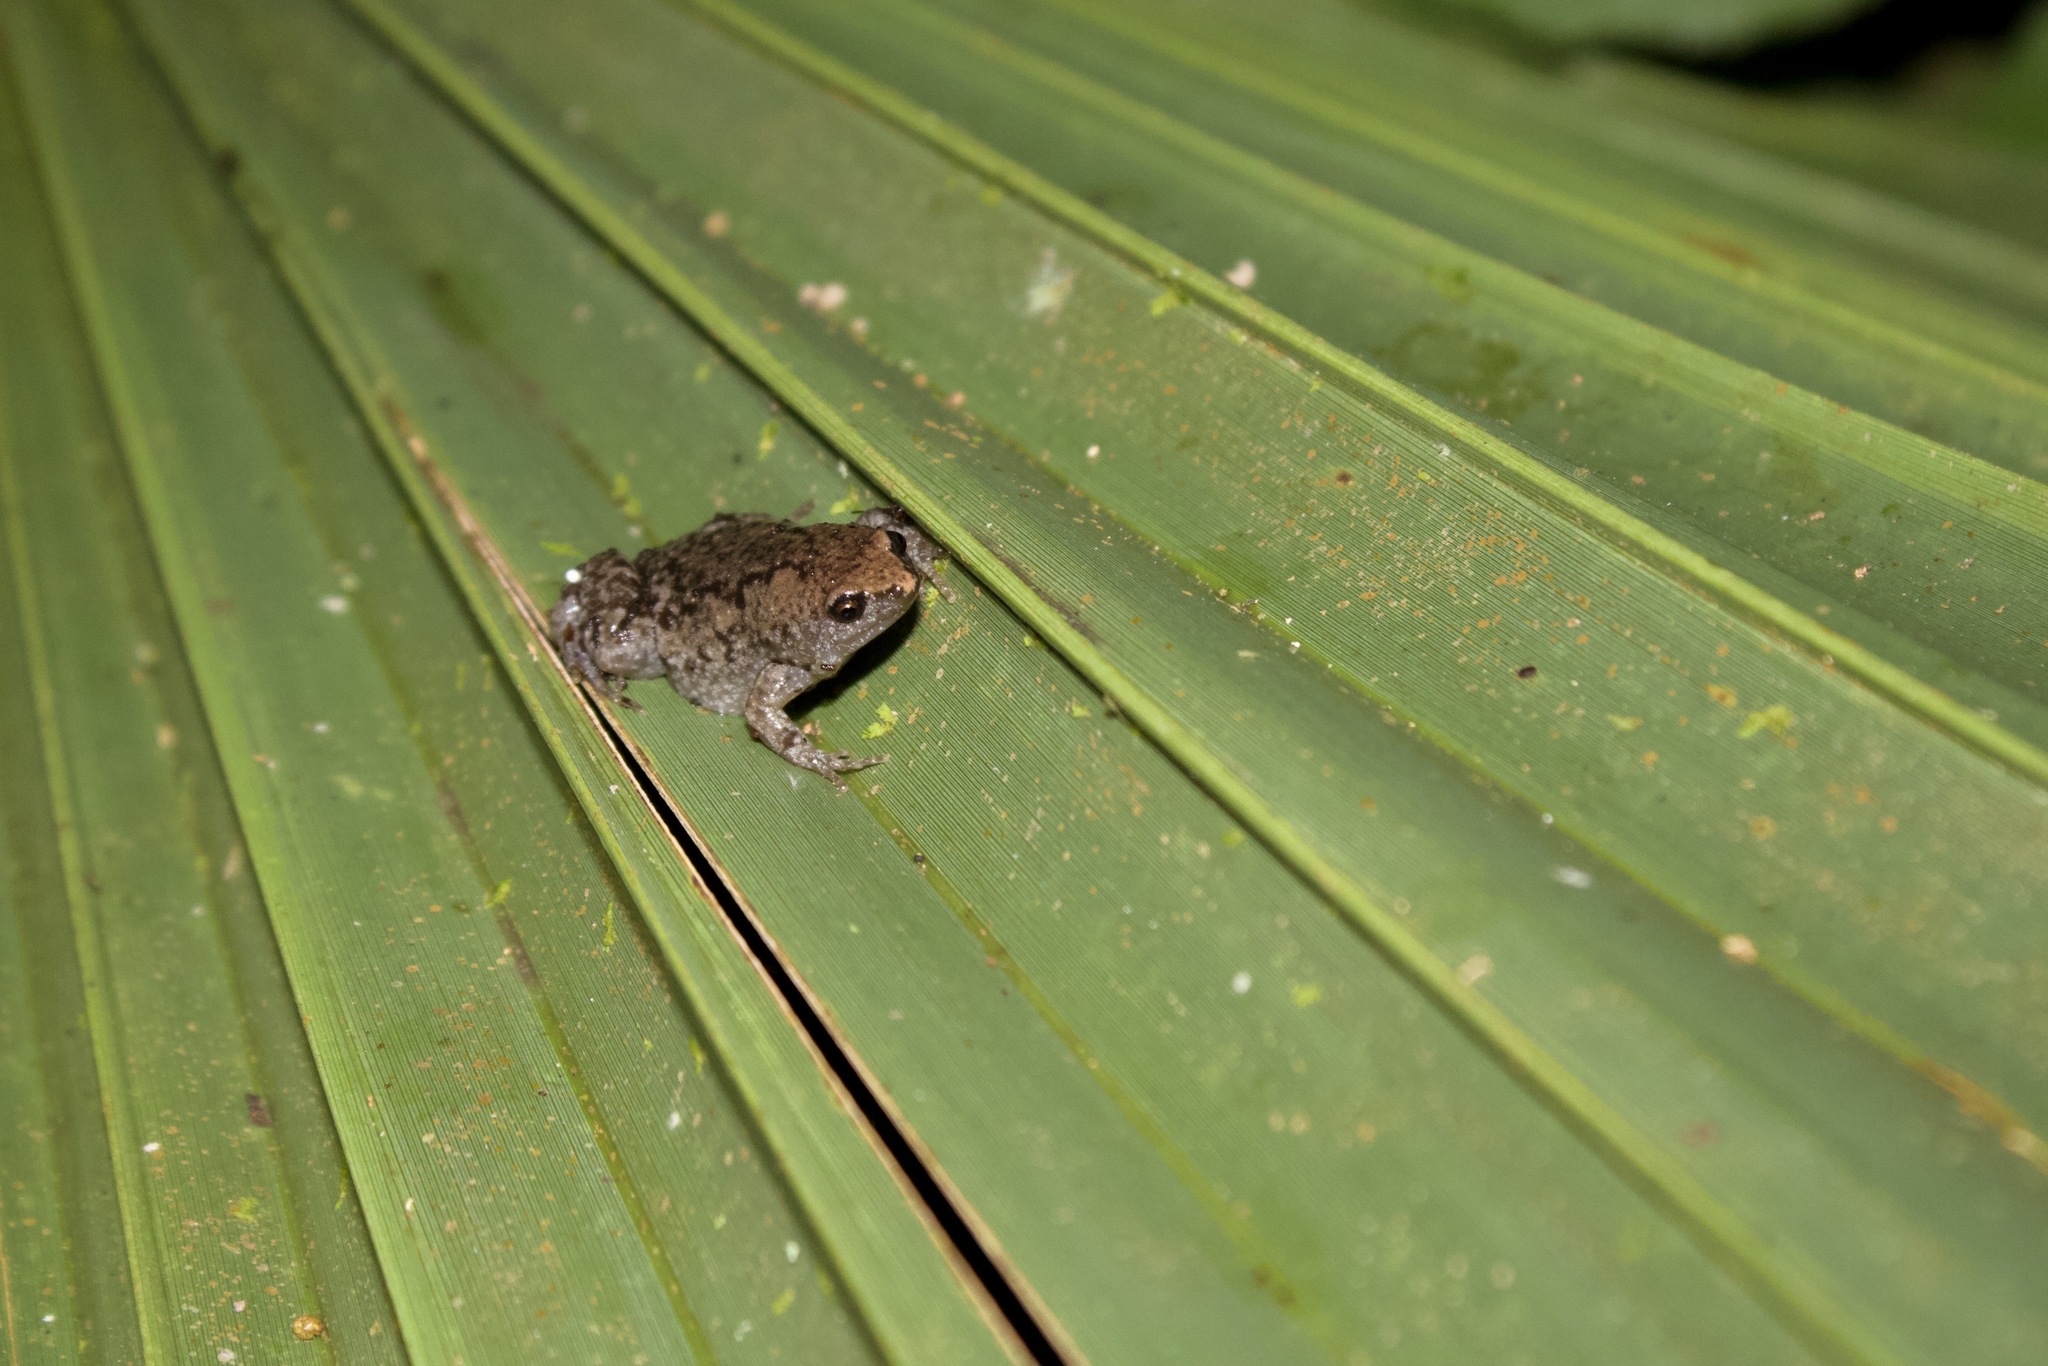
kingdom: Animalia
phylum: Chordata
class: Amphibia
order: Anura
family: Microhylidae
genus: Gastrophryne
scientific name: Gastrophryne carolinensis
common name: Eastern narrowmouth toad
